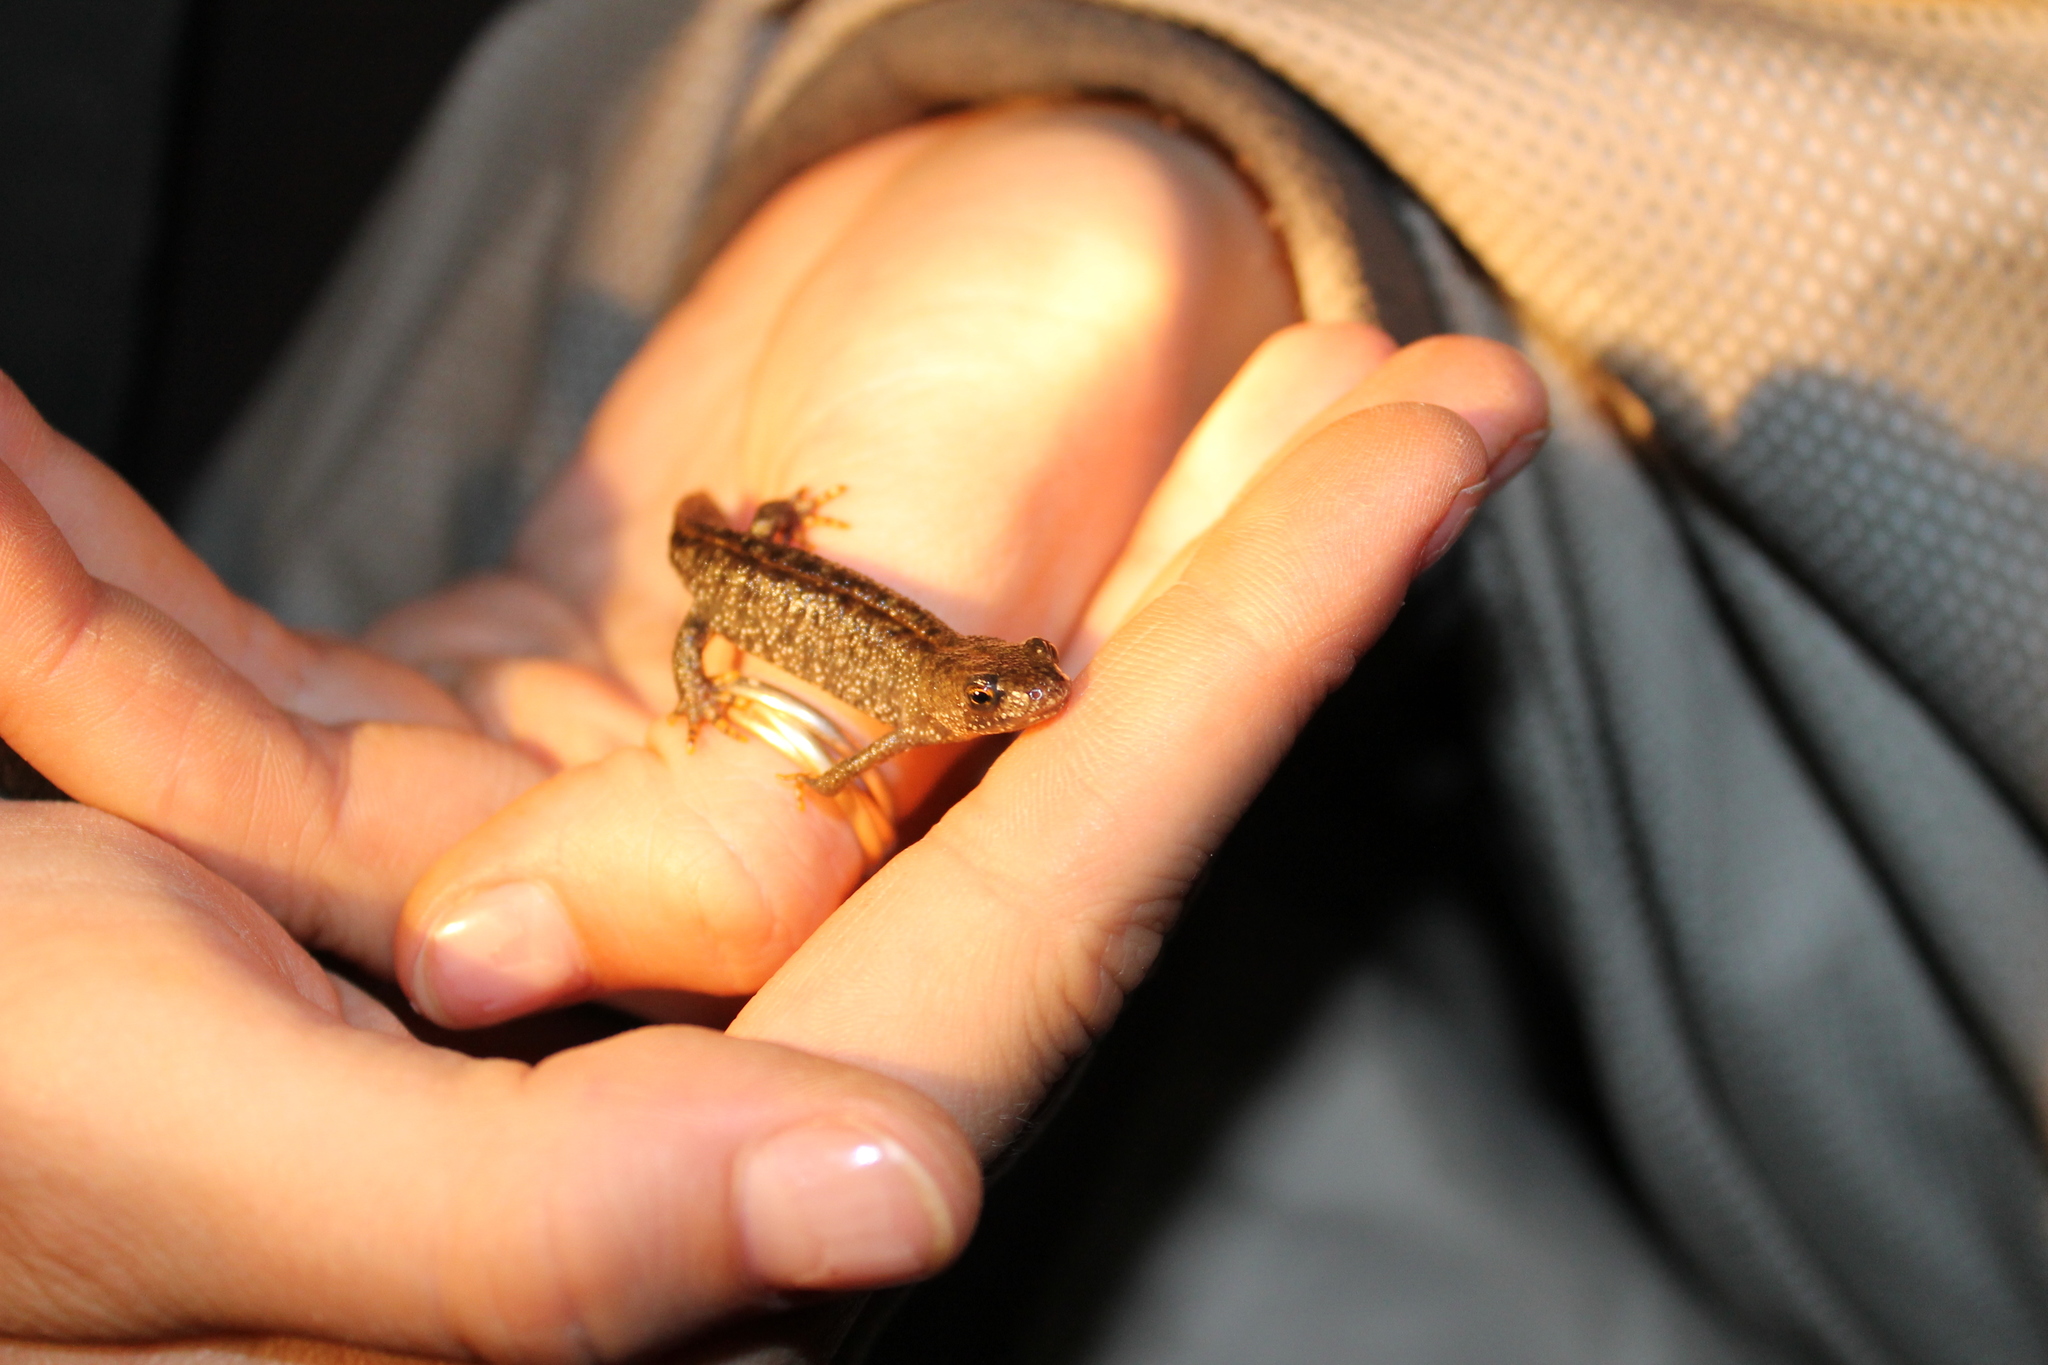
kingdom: Animalia
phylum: Chordata
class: Amphibia
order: Caudata
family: Salamandridae
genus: Ichthyosaura
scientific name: Ichthyosaura alpestris
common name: Alpine newt
